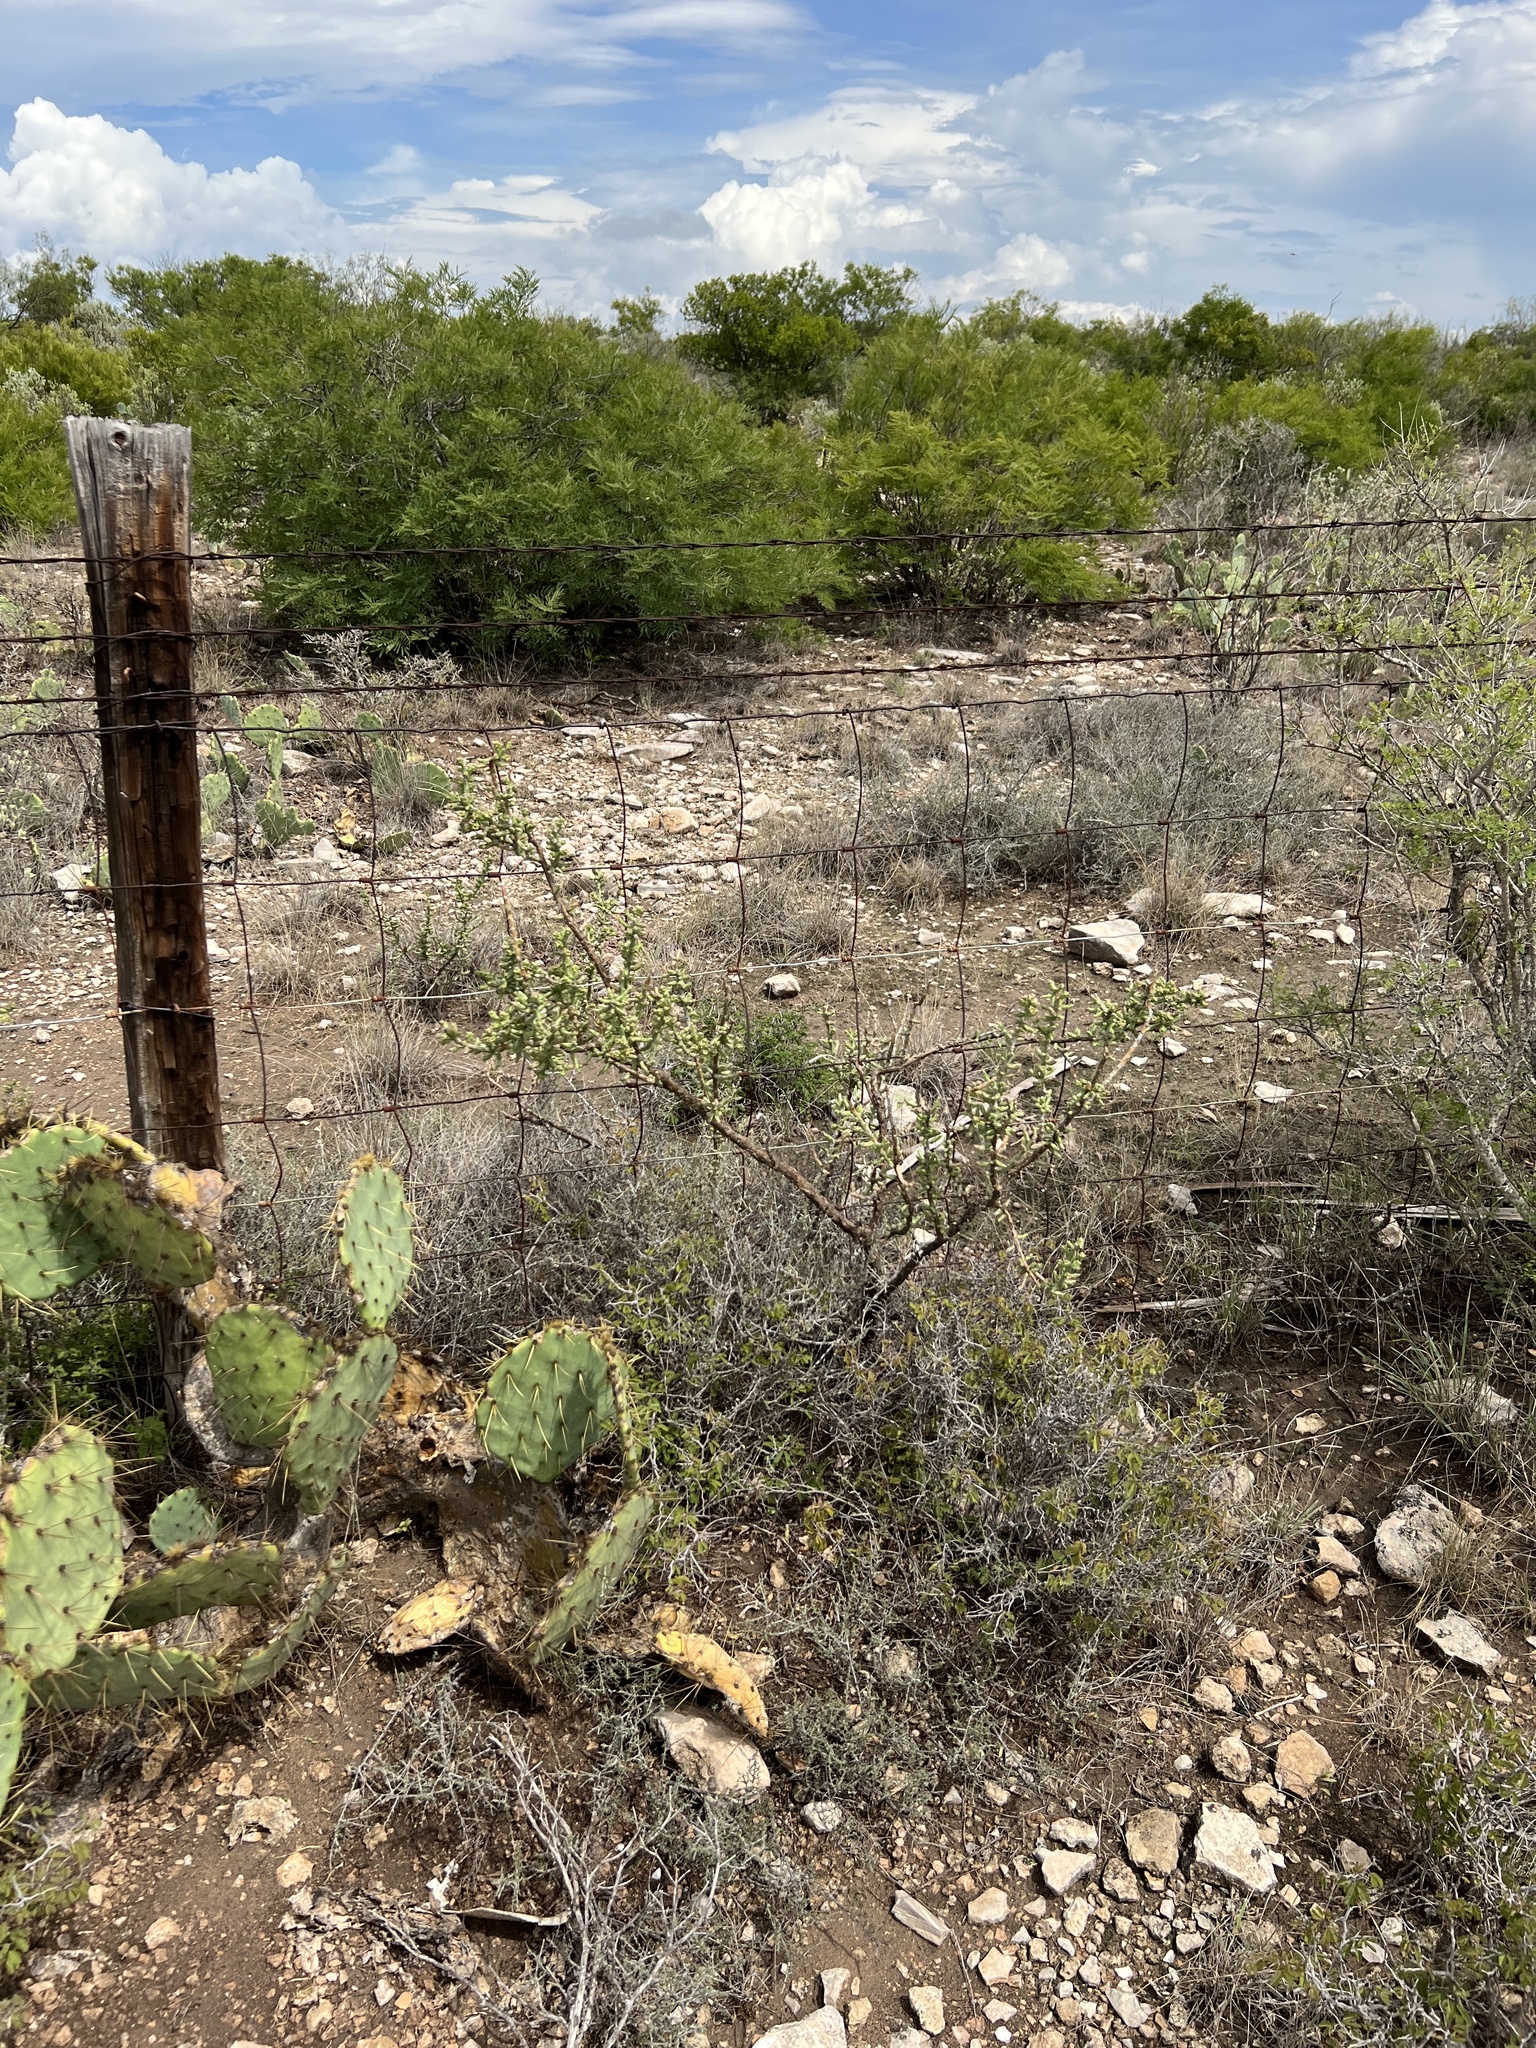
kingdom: Plantae
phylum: Tracheophyta
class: Magnoliopsida
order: Caryophyllales
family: Cactaceae
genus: Cylindropuntia
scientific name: Cylindropuntia leptocaulis
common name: Christmas cactus
